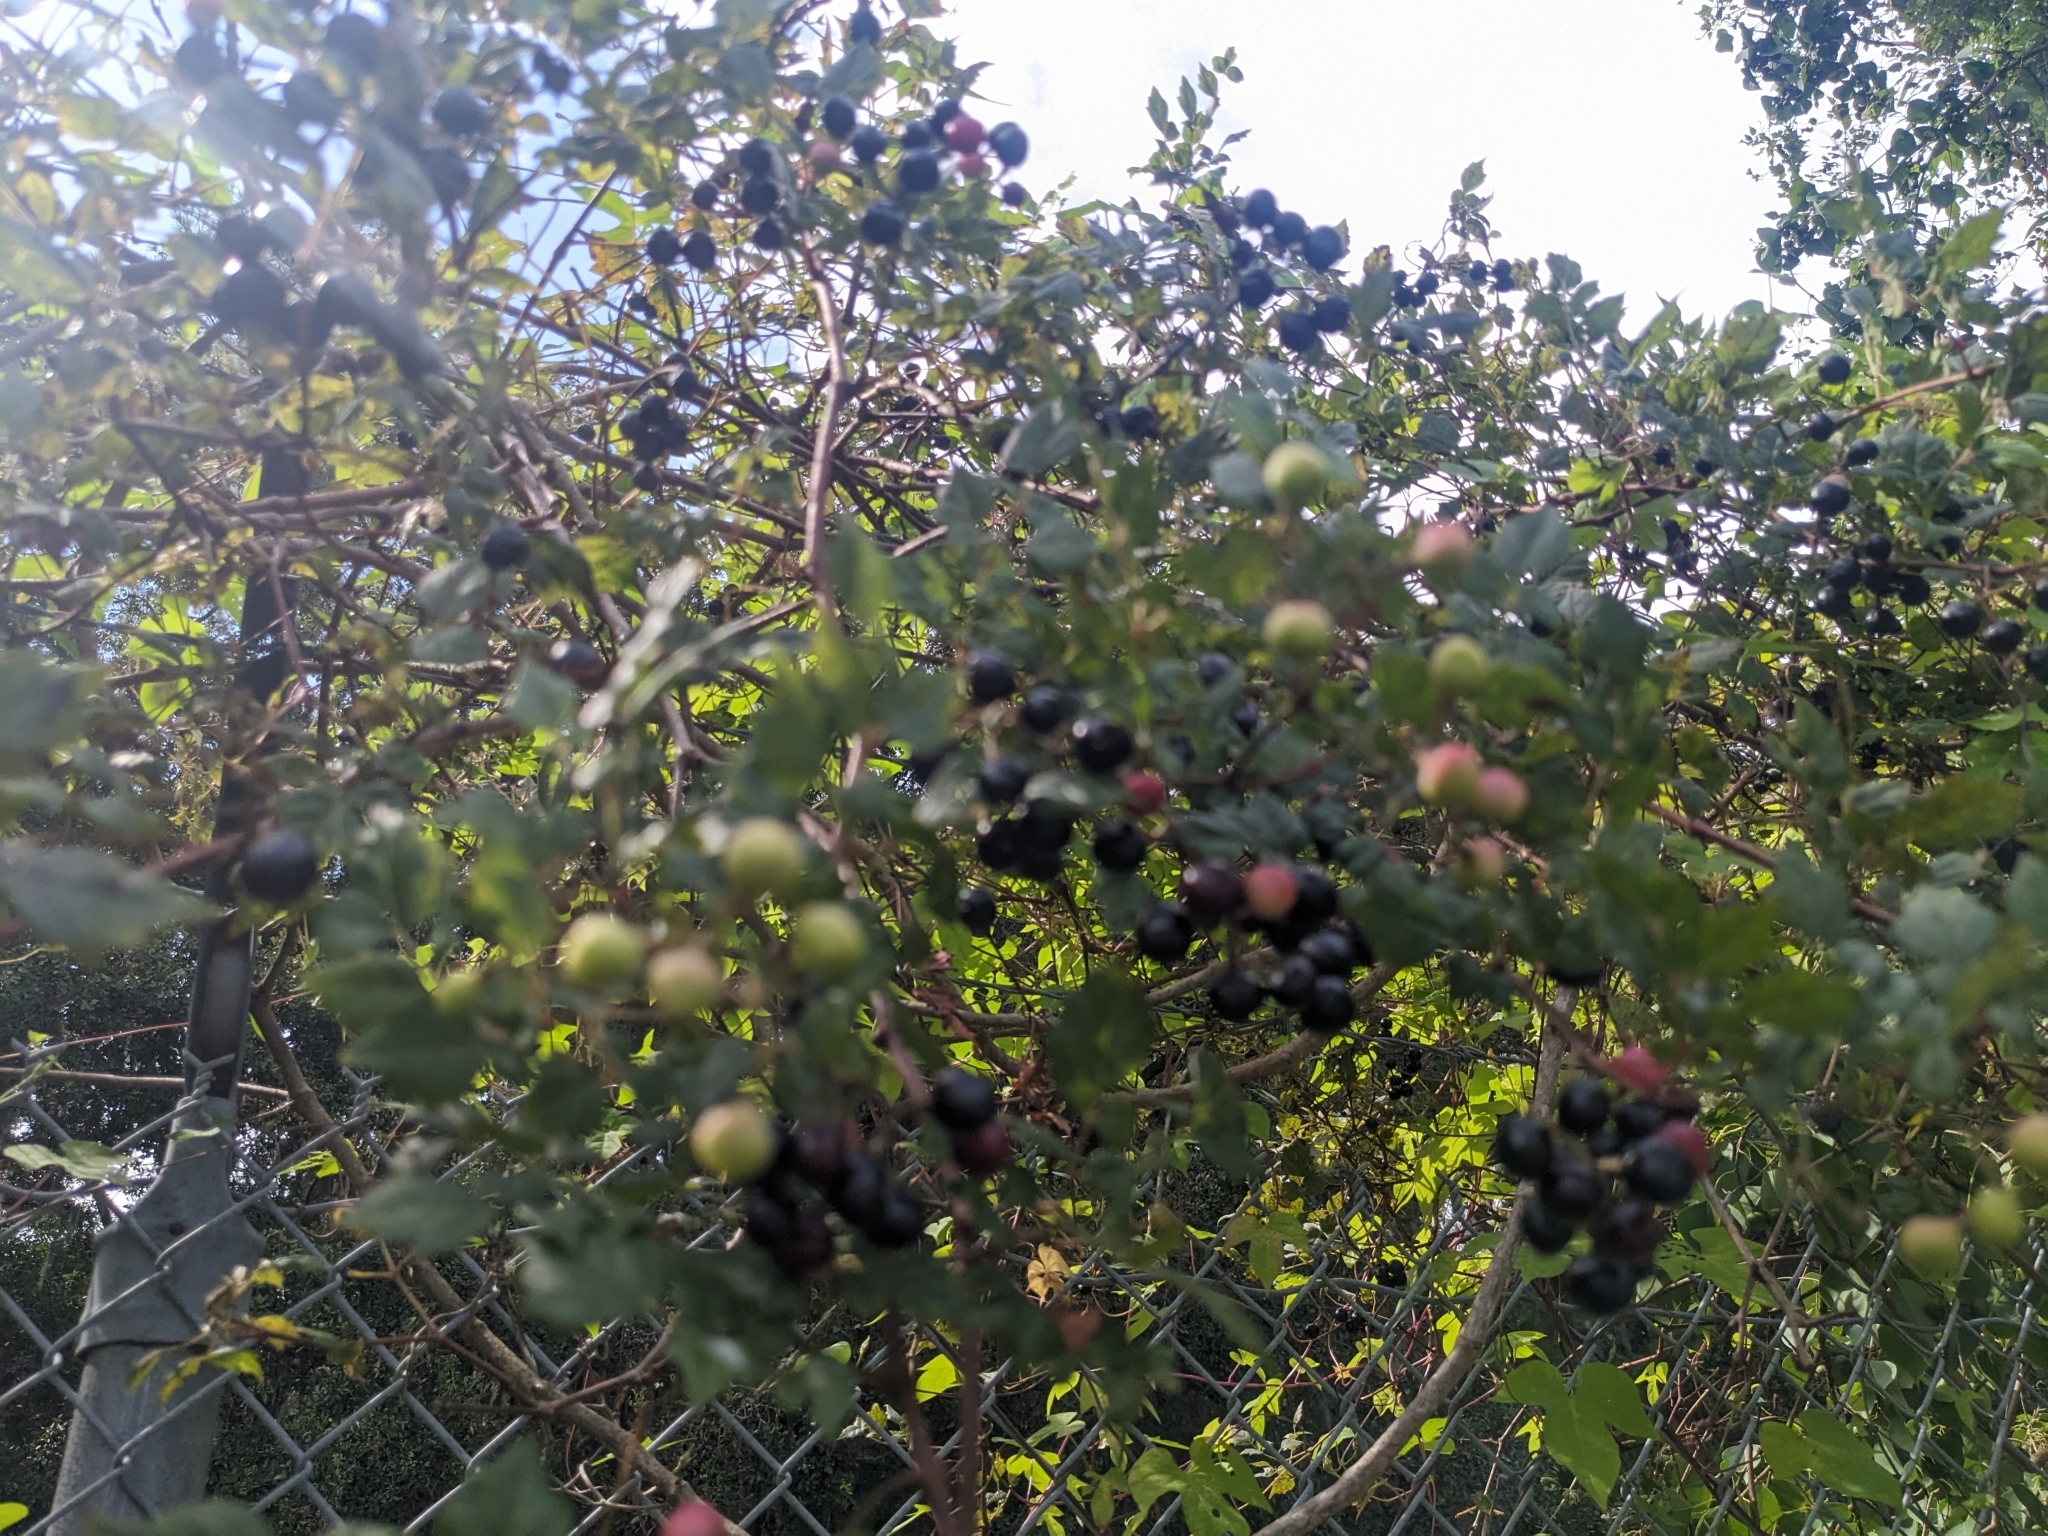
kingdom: Plantae
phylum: Tracheophyta
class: Magnoliopsida
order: Vitales
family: Vitaceae
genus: Nekemias
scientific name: Nekemias arborea
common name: Peppervine
